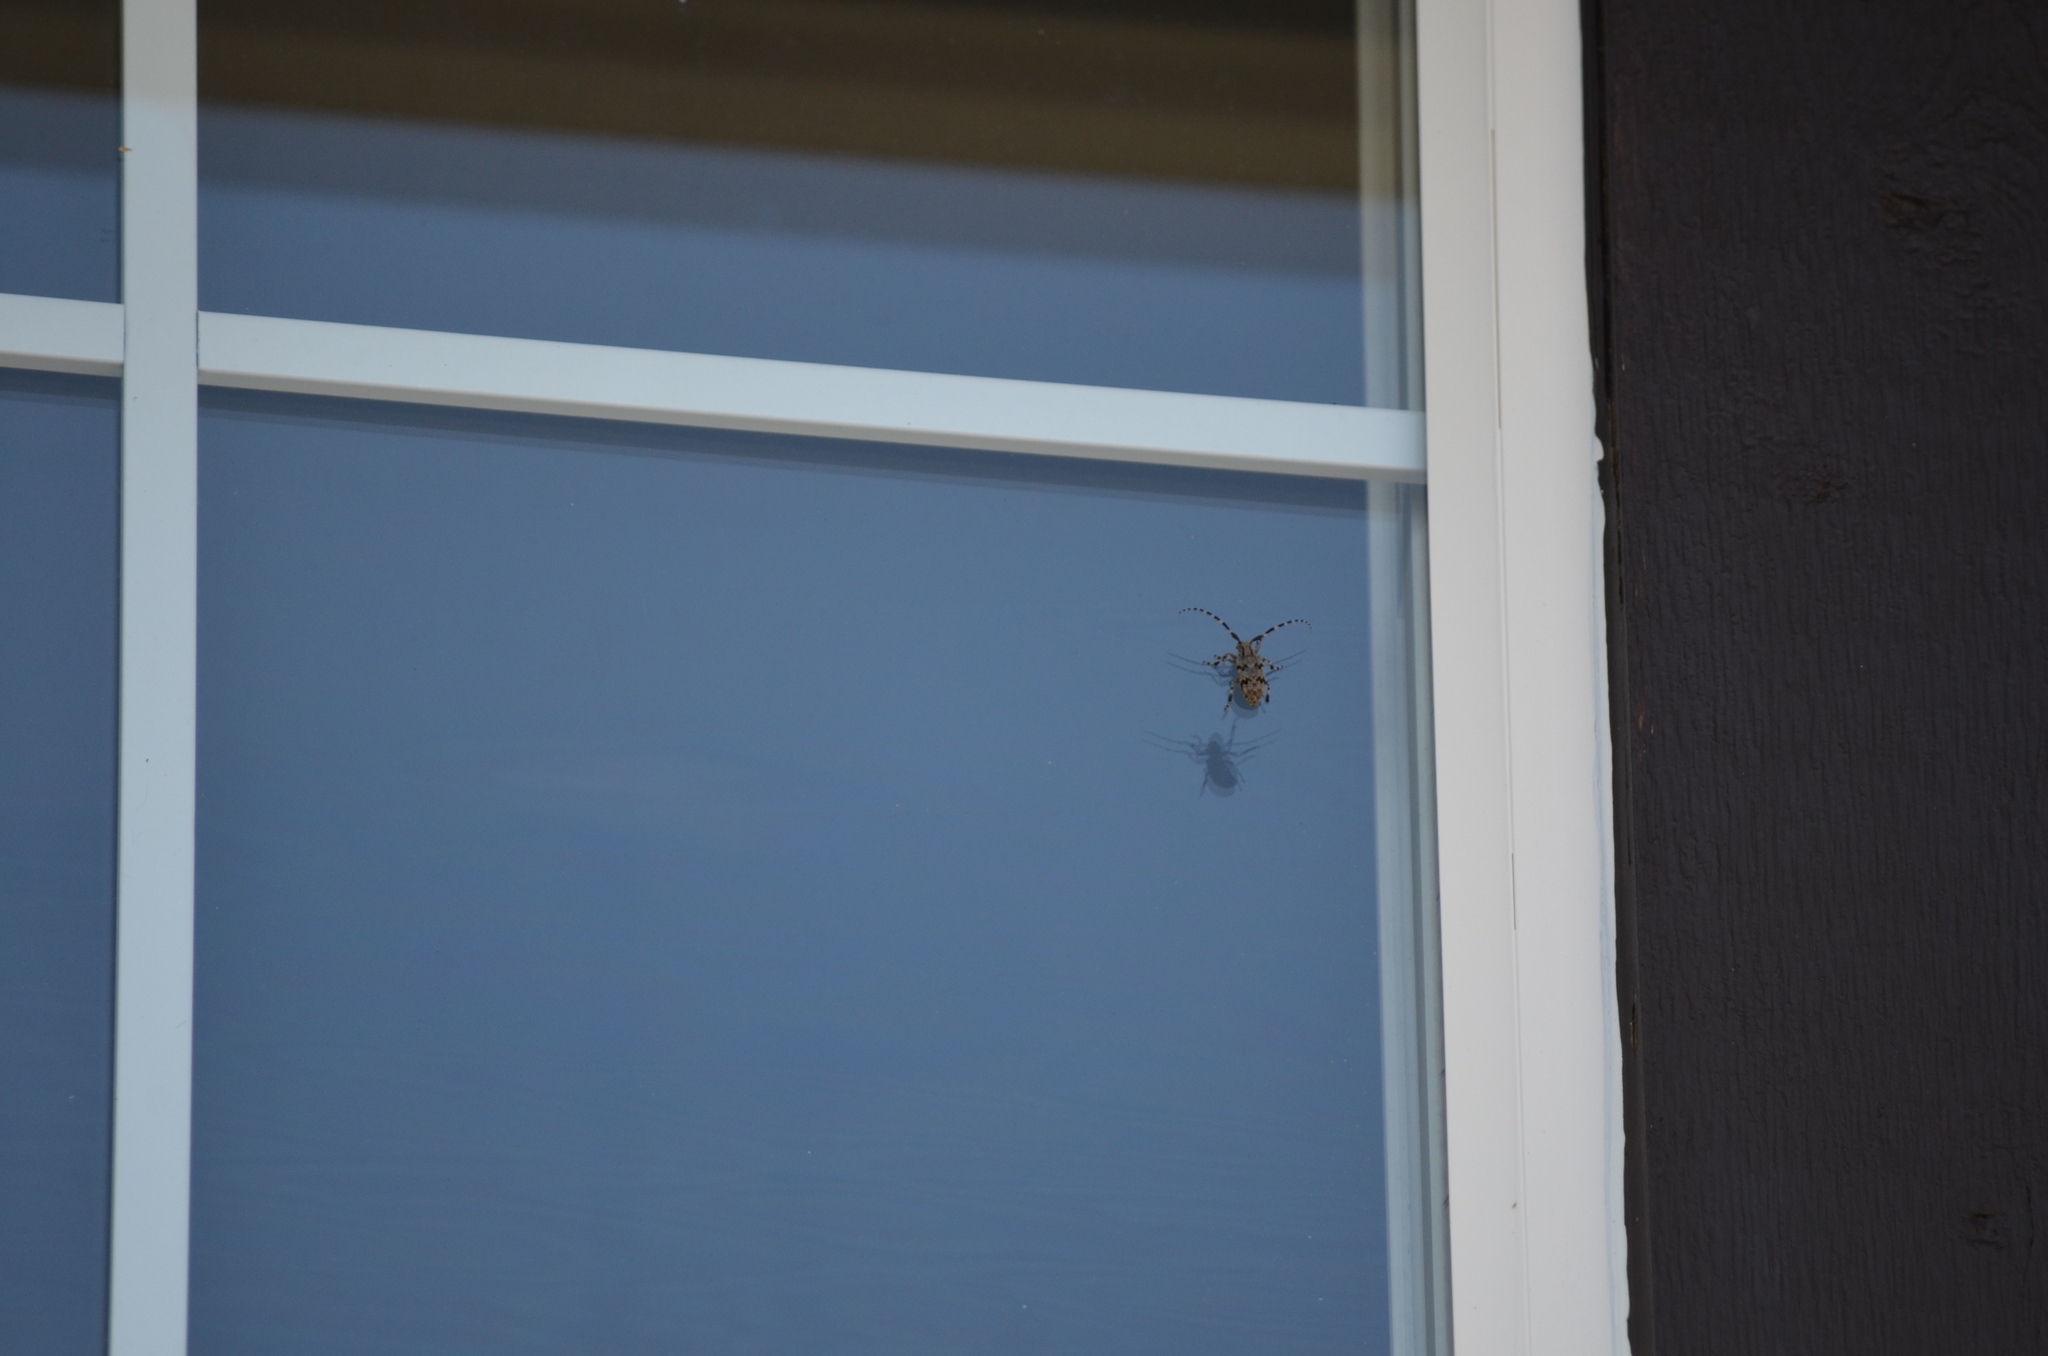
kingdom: Animalia
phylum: Arthropoda
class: Insecta
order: Coleoptera
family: Cerambycidae
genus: Synaphaeta
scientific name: Synaphaeta guexi
